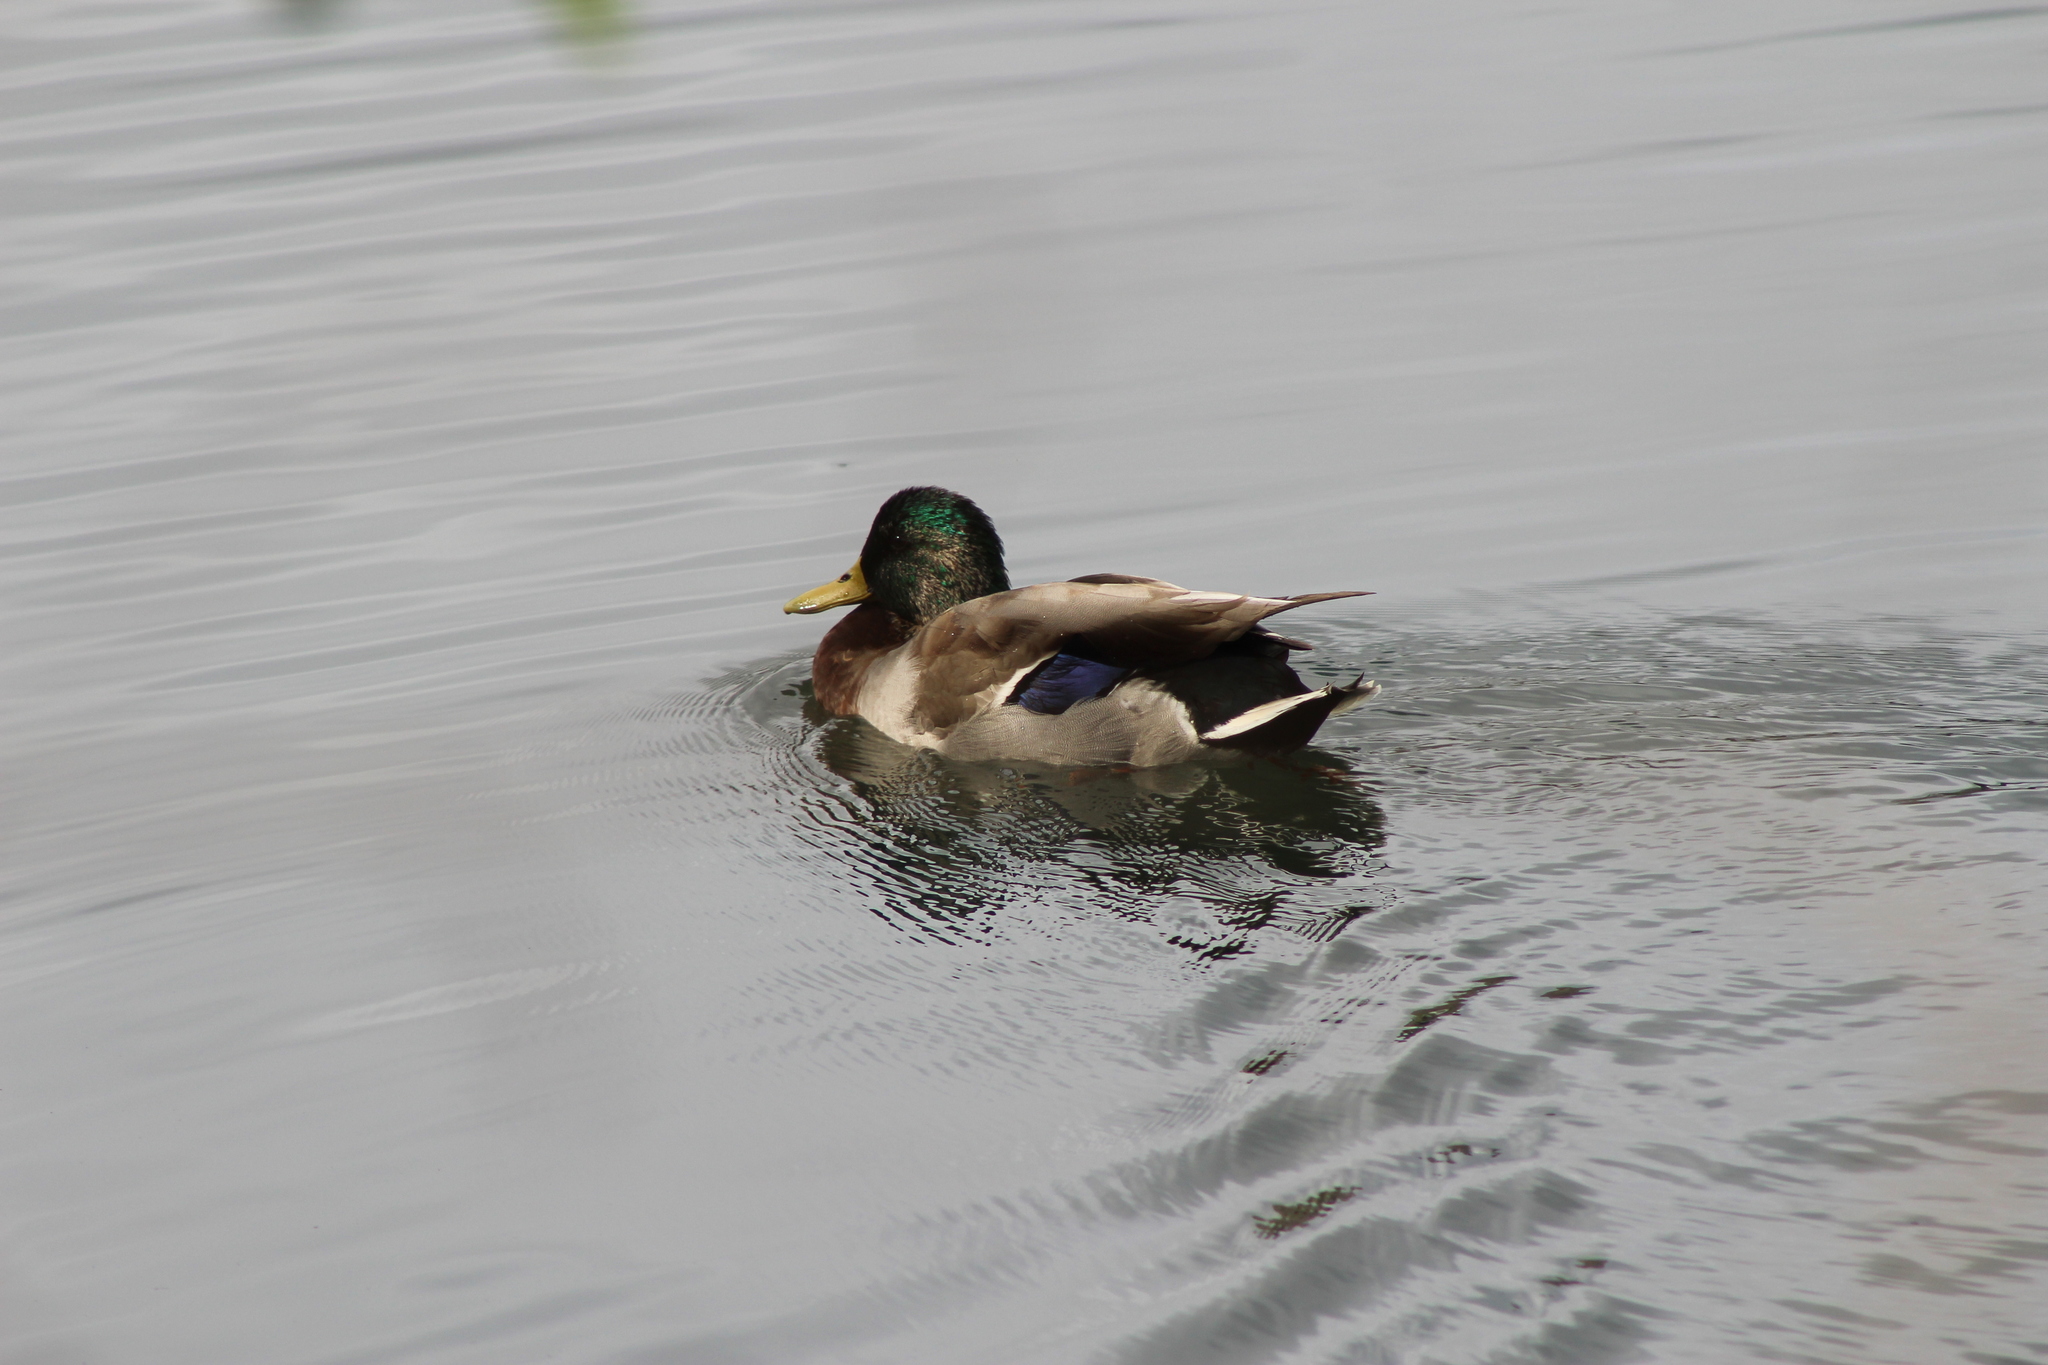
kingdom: Animalia
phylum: Chordata
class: Aves
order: Anseriformes
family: Anatidae
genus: Anas
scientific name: Anas platyrhynchos
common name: Mallard
